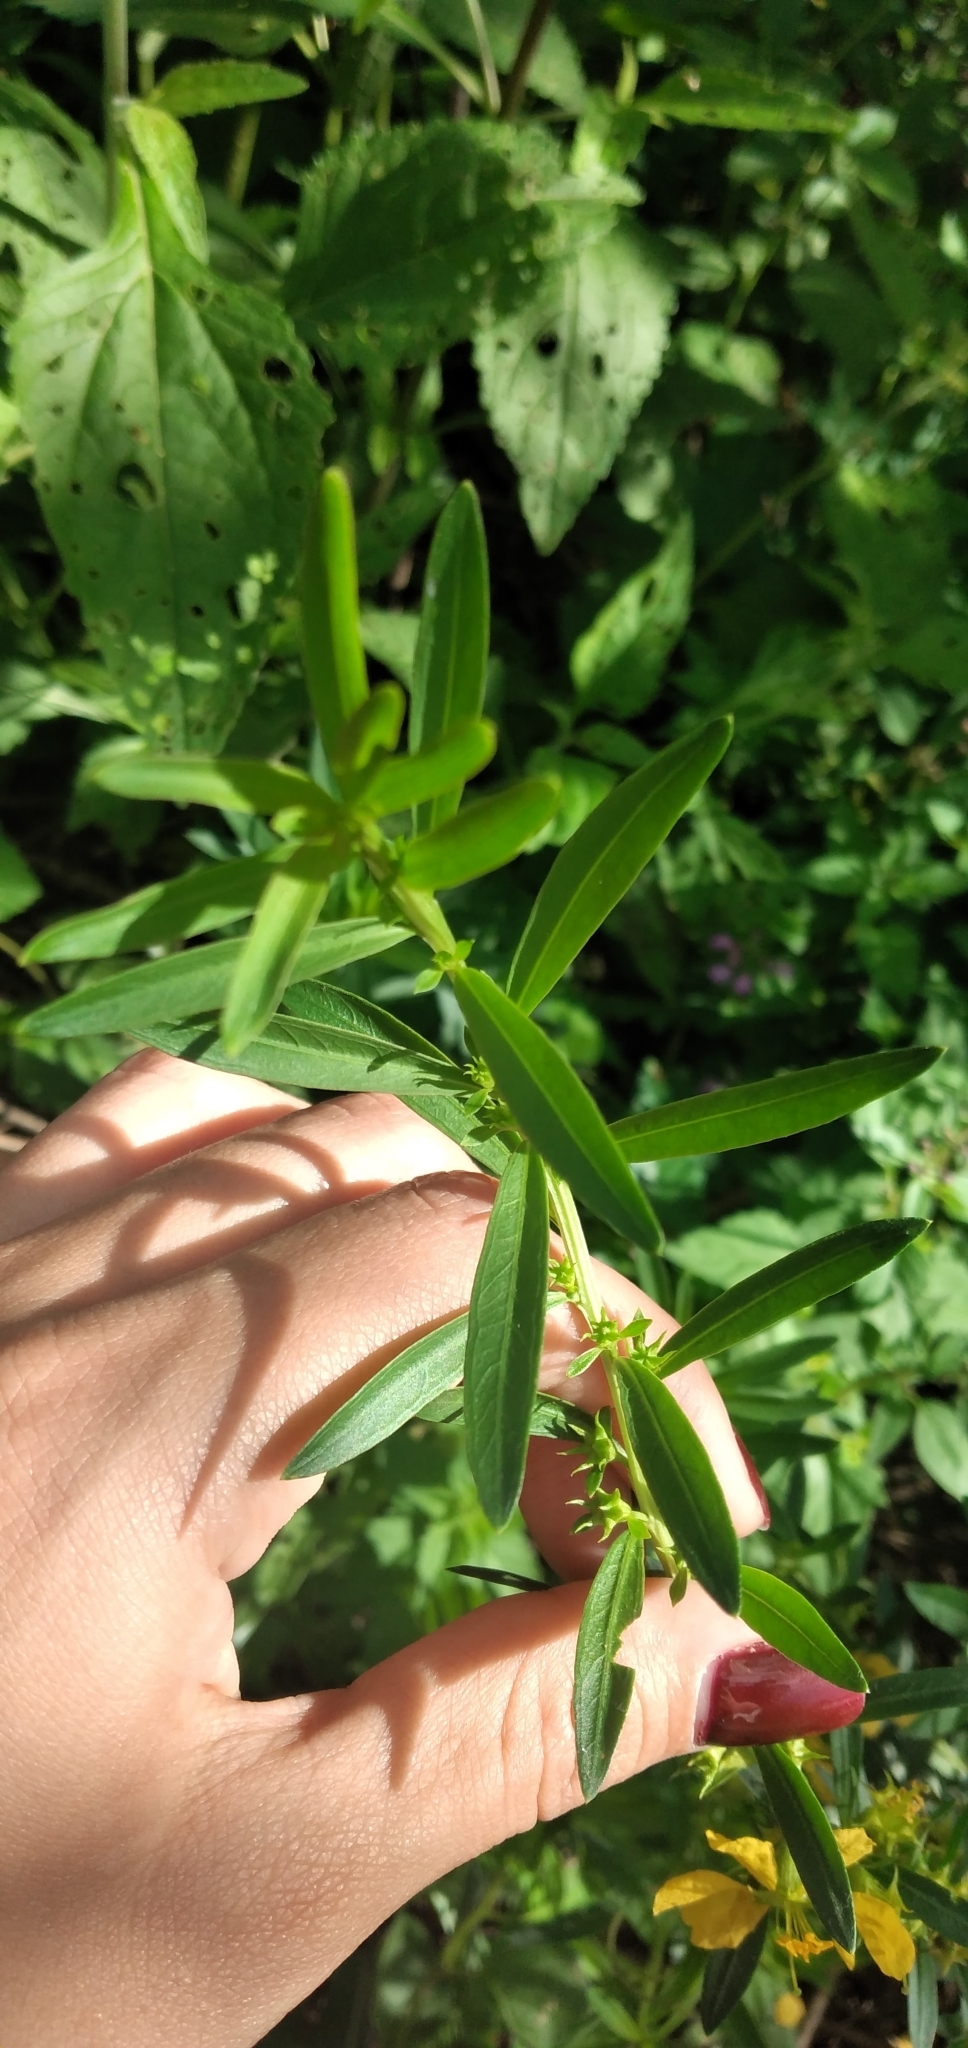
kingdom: Plantae
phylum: Tracheophyta
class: Magnoliopsida
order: Myrtales
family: Lythraceae
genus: Heimia
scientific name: Heimia salicifolia
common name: Willow-leaf heimia
